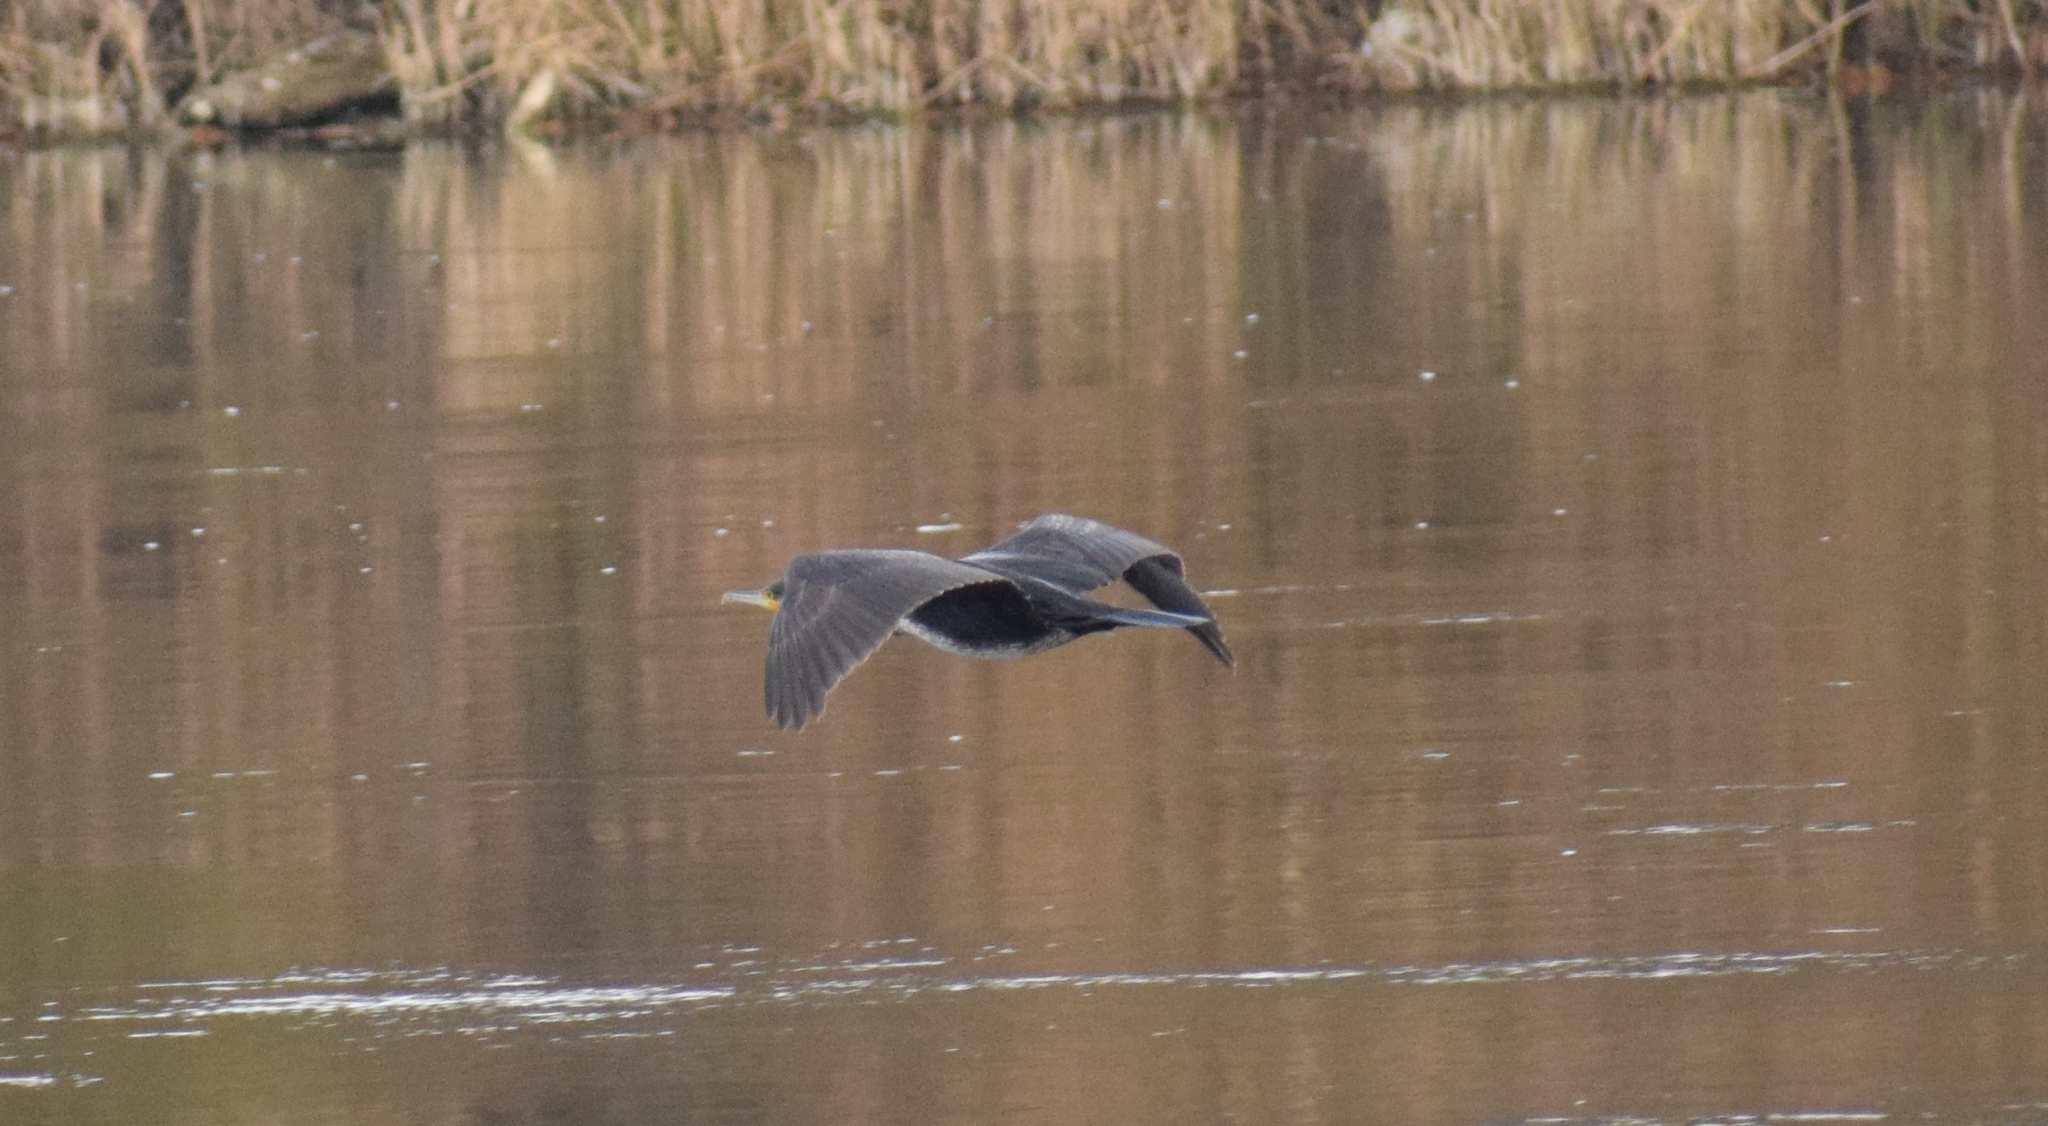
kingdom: Animalia
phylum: Chordata
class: Aves
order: Suliformes
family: Phalacrocoracidae
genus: Phalacrocorax
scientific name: Phalacrocorax carbo
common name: Great cormorant
